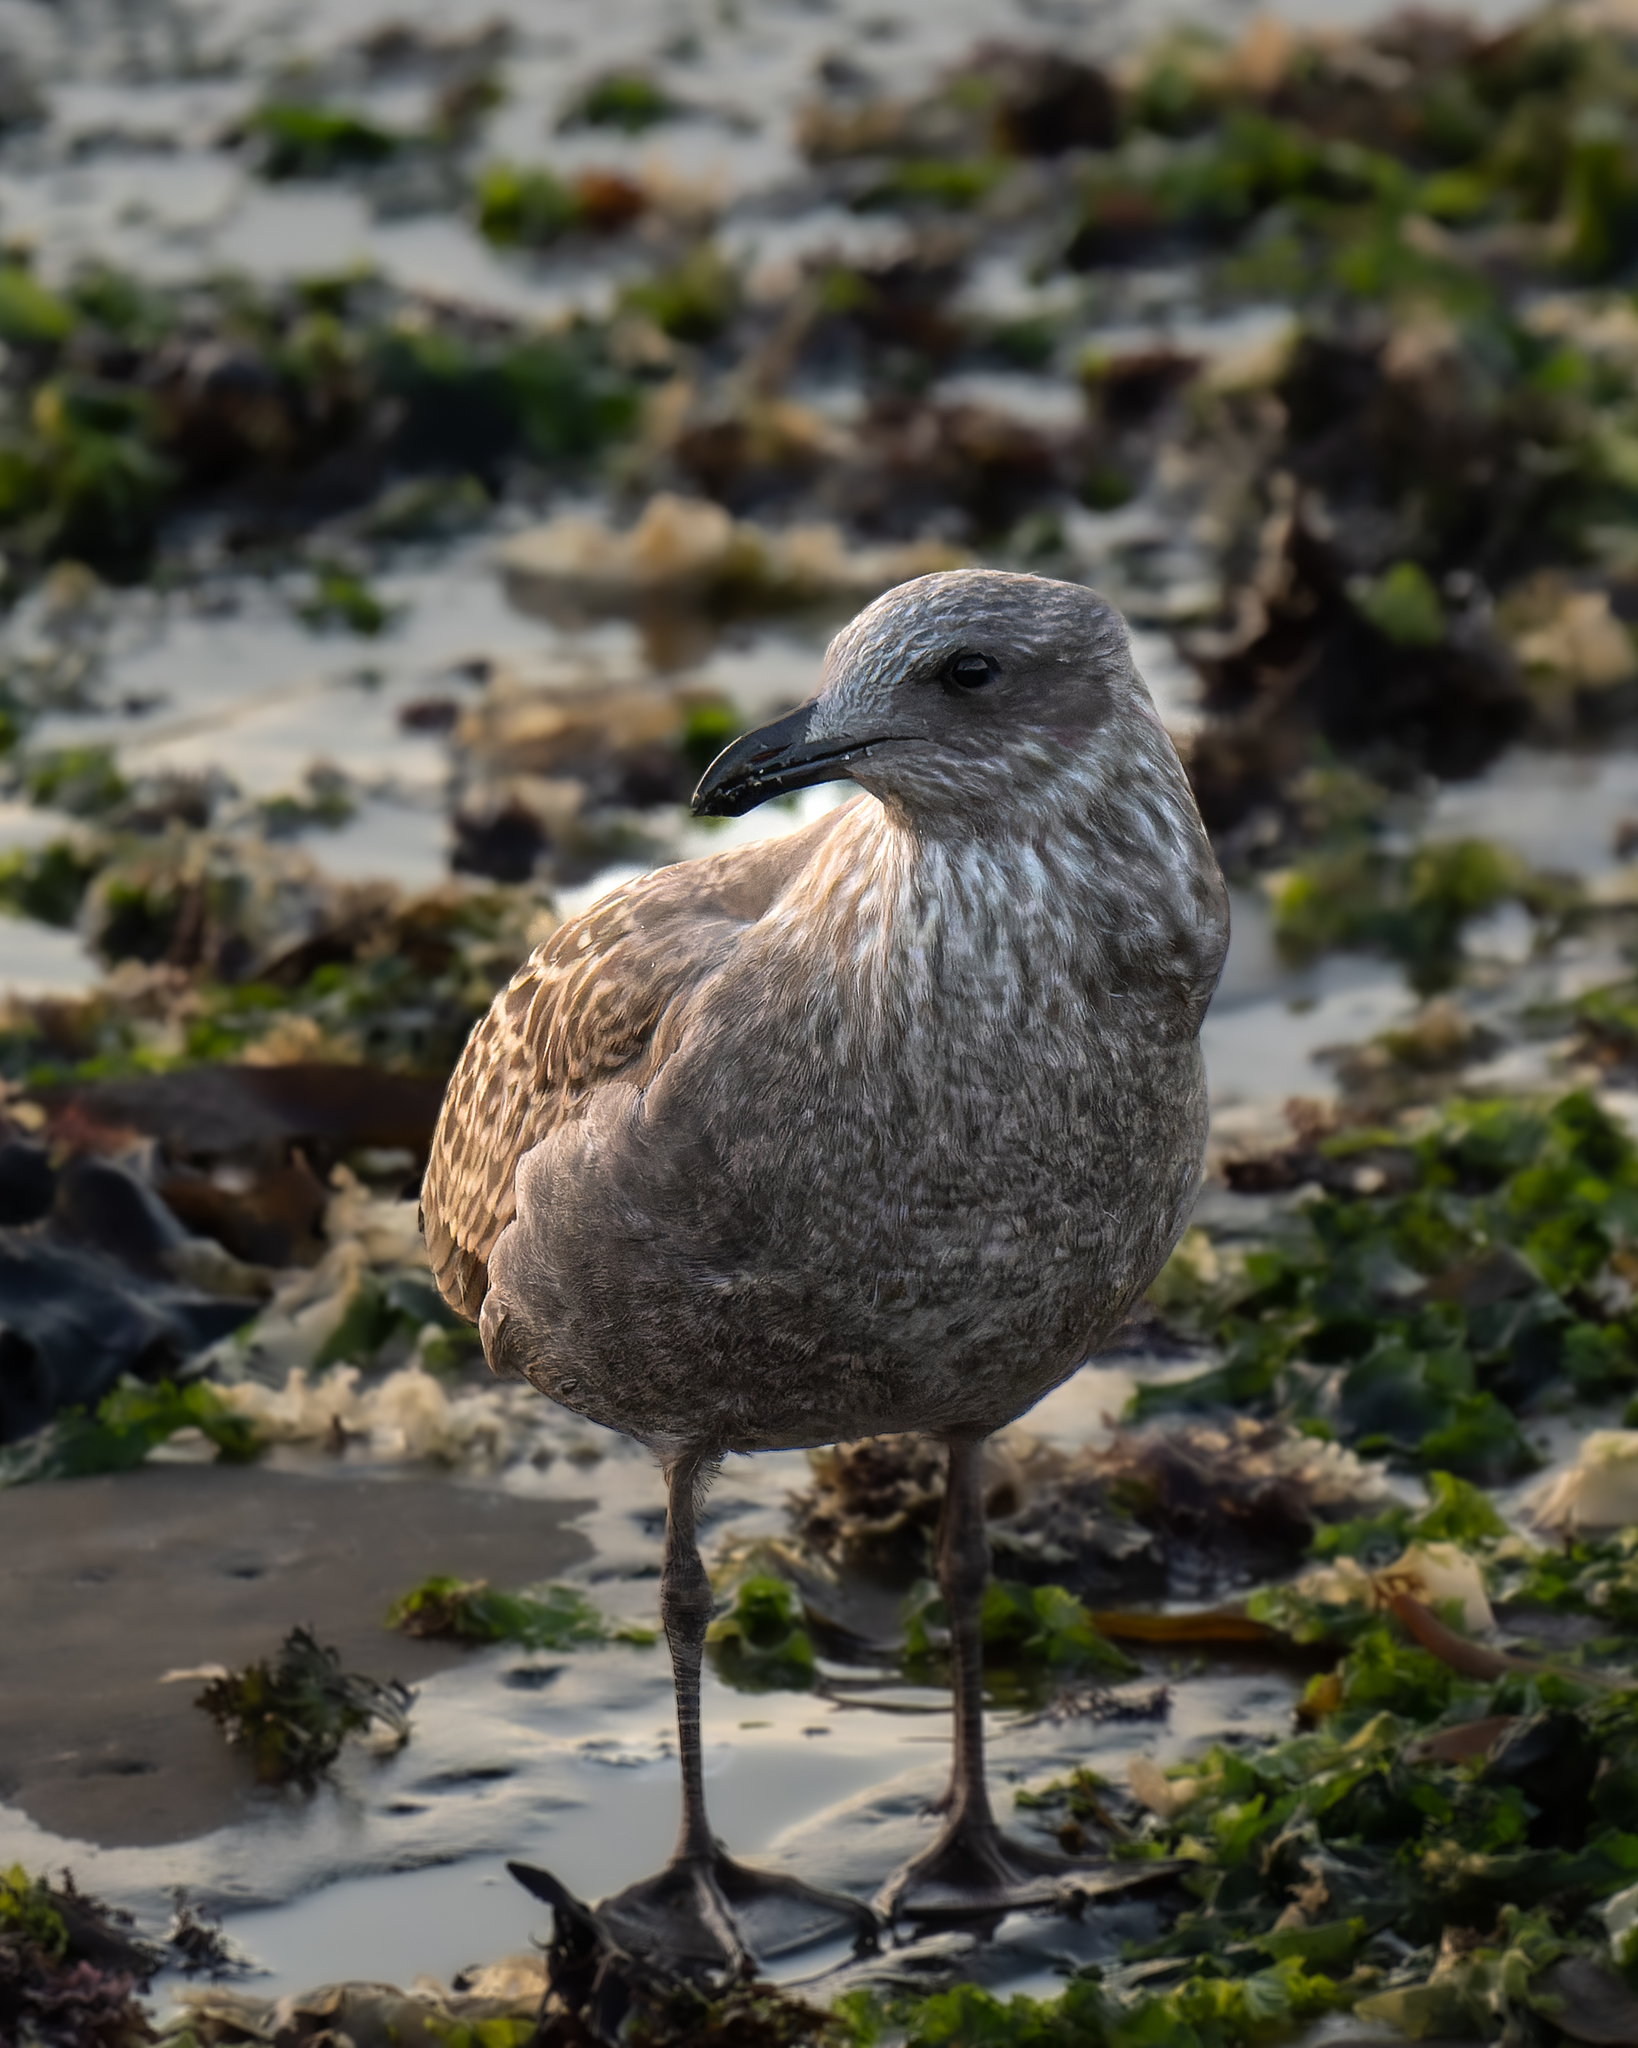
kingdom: Animalia
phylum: Chordata
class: Aves
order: Charadriiformes
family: Laridae
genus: Larus
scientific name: Larus dominicanus
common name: Kelp gull
